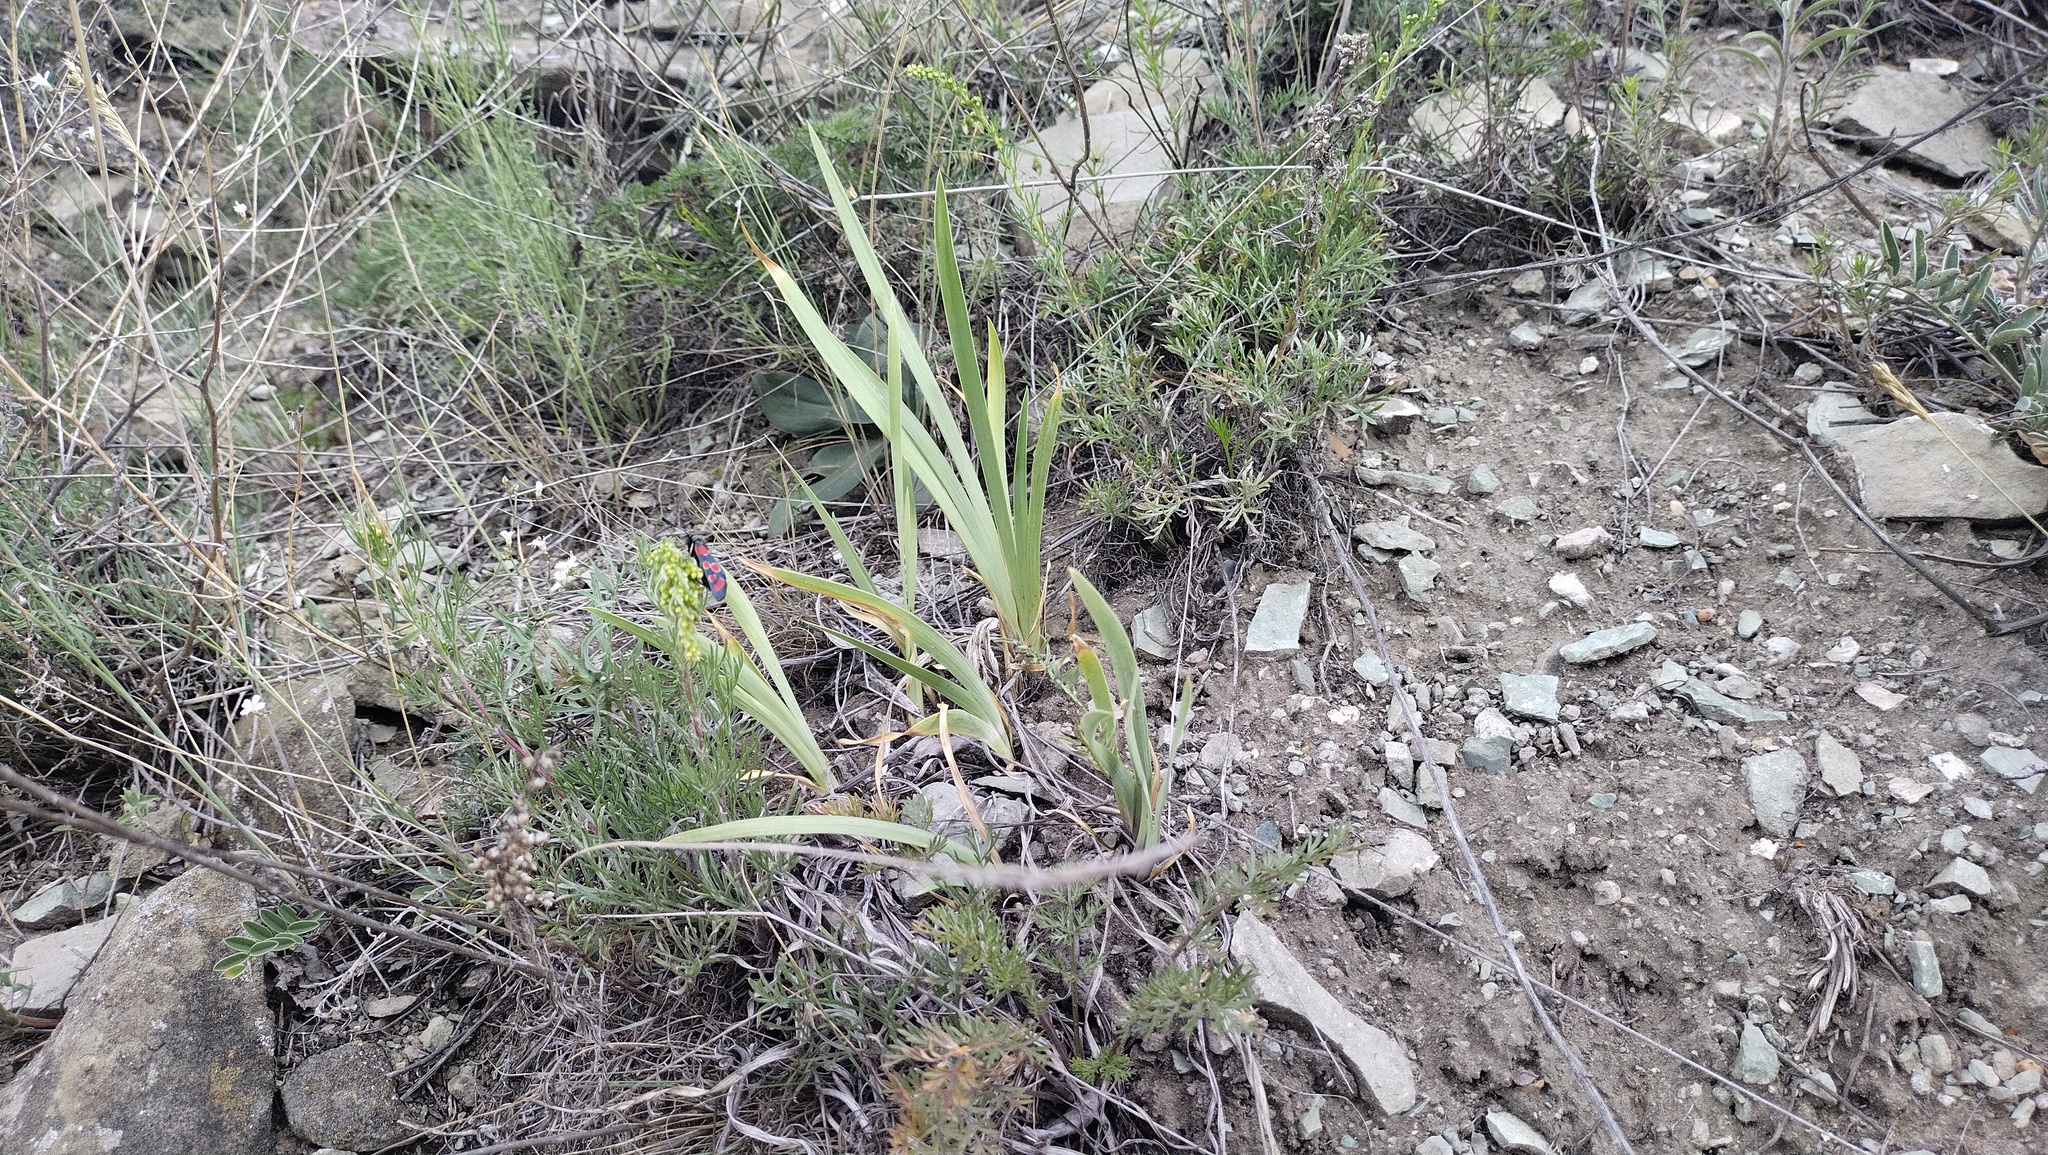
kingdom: Plantae
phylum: Tracheophyta
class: Liliopsida
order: Asparagales
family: Iridaceae
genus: Iris
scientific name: Iris humilis
